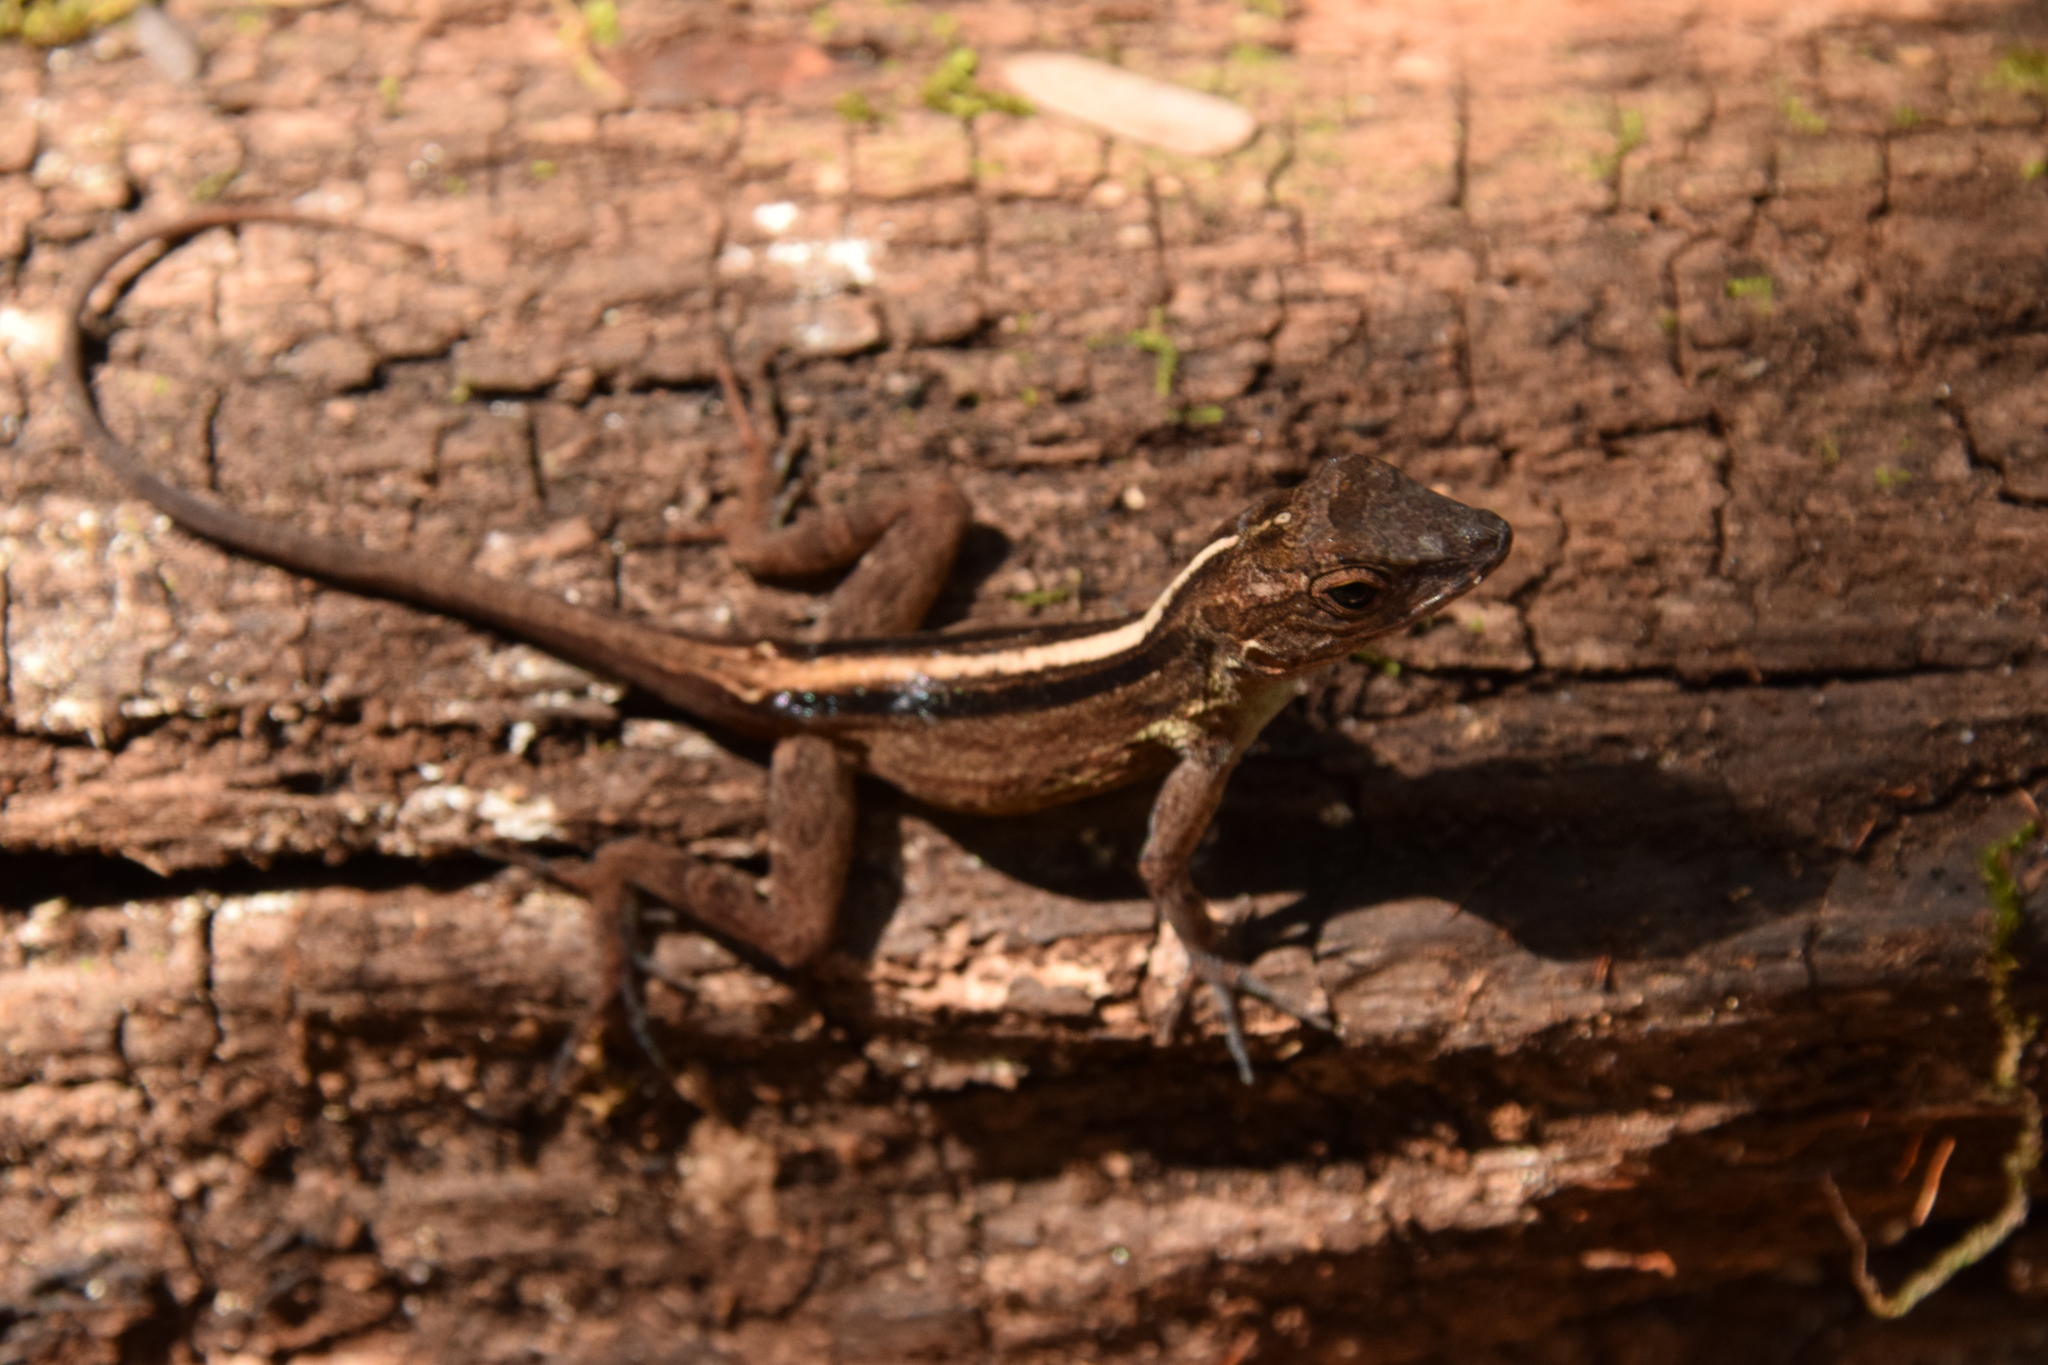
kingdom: Animalia
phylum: Chordata
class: Squamata
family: Dactyloidae
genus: Anolis
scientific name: Anolis cristatellus
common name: Crested anole
